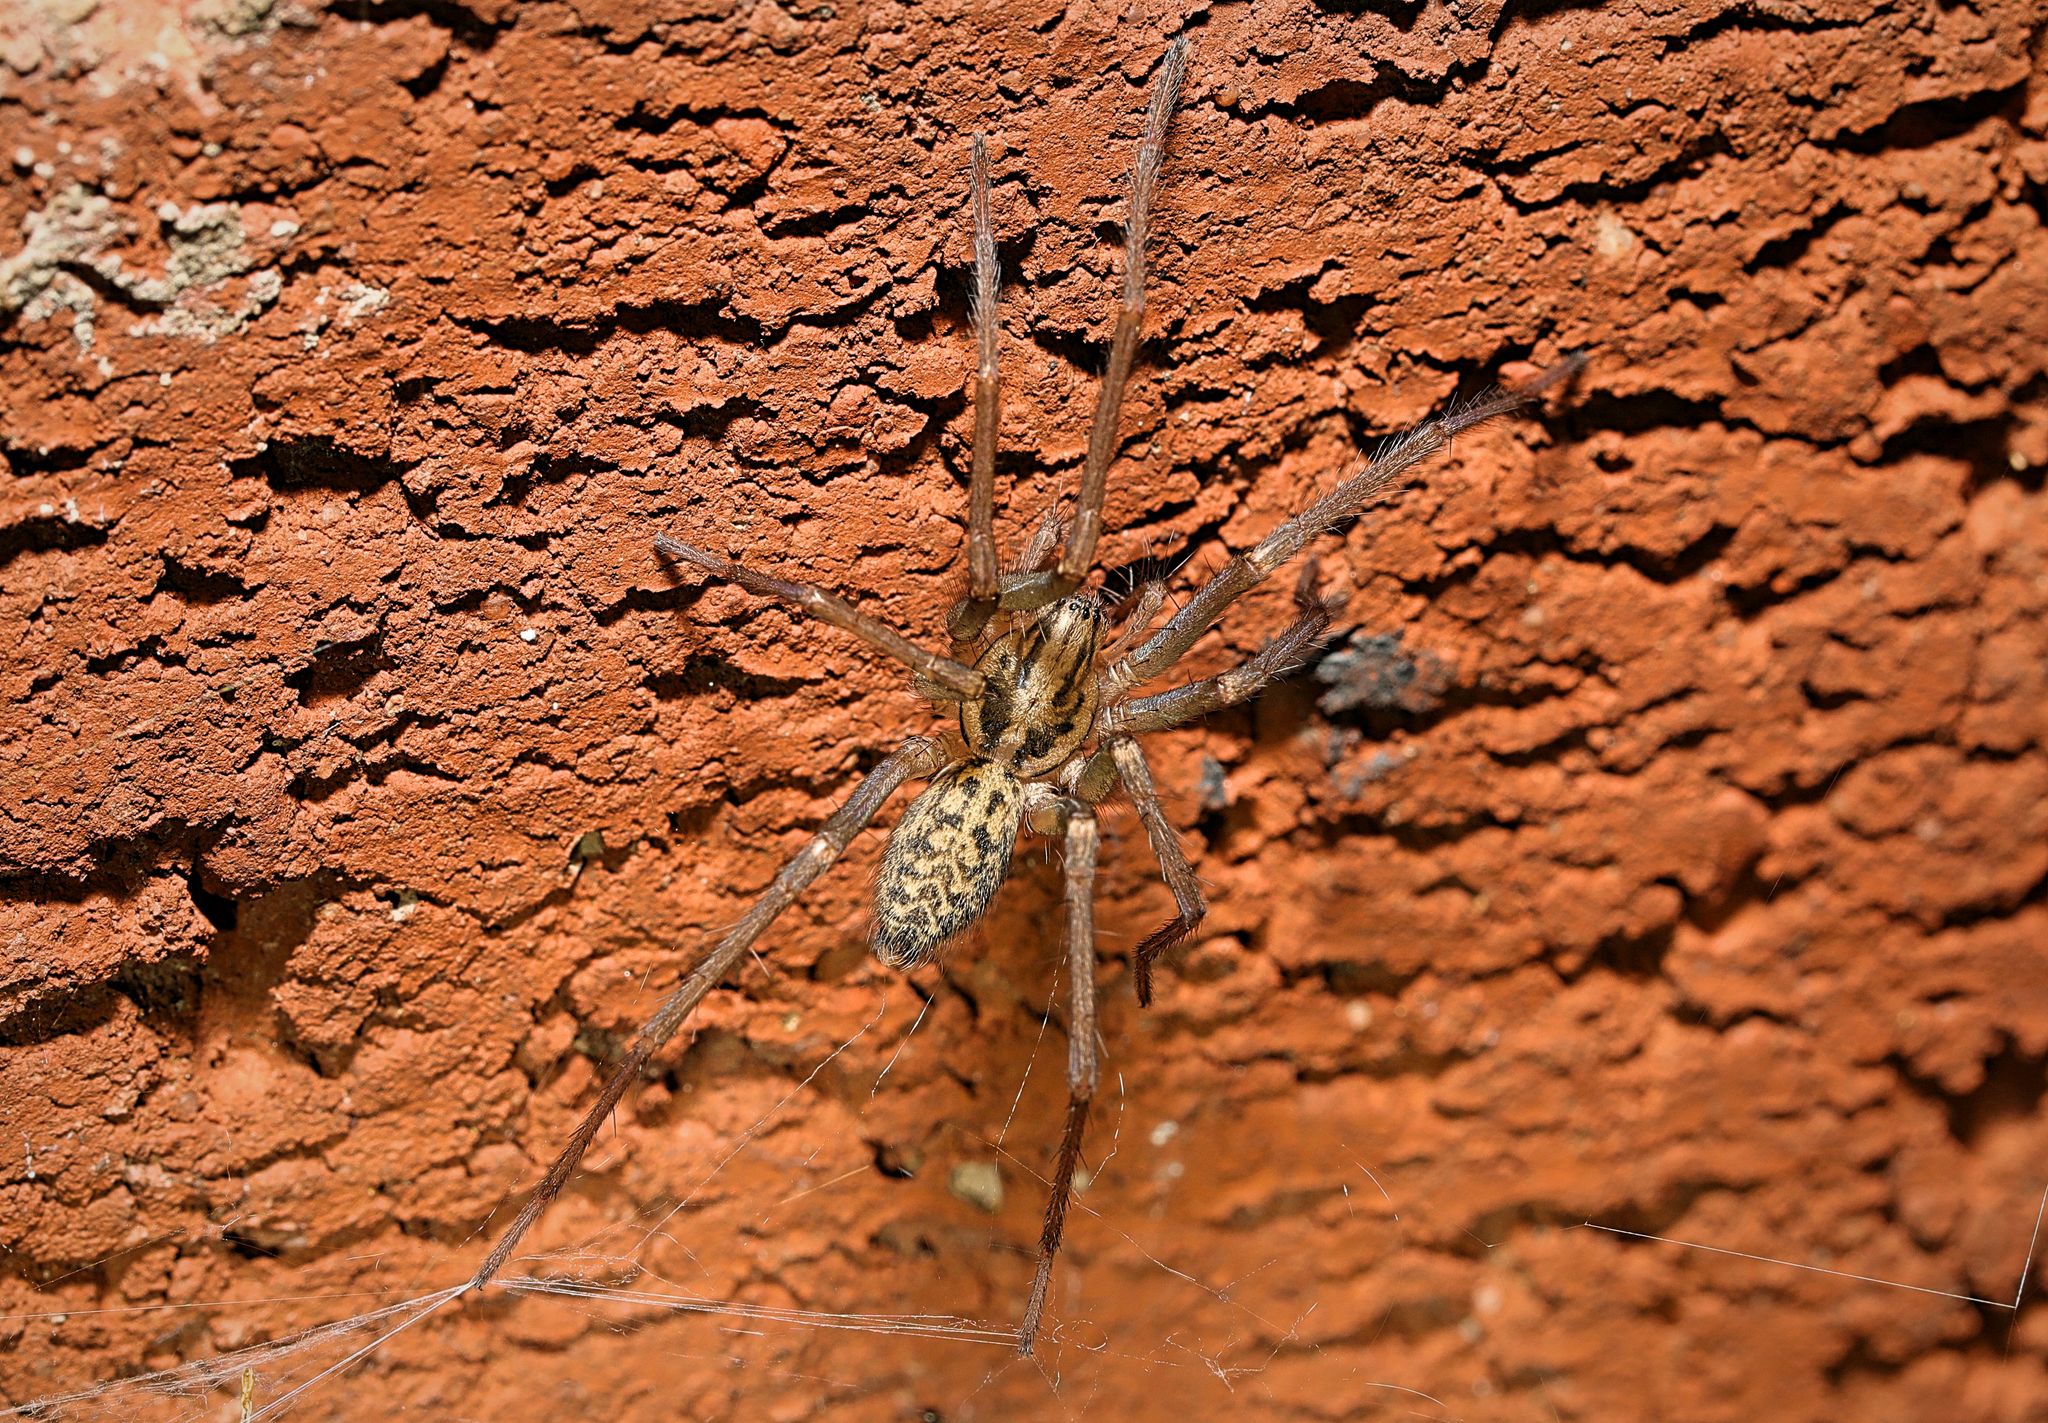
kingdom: Animalia
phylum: Arthropoda
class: Arachnida
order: Araneae
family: Agelenidae
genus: Eratigena
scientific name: Eratigena duellica
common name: Giant house spider
